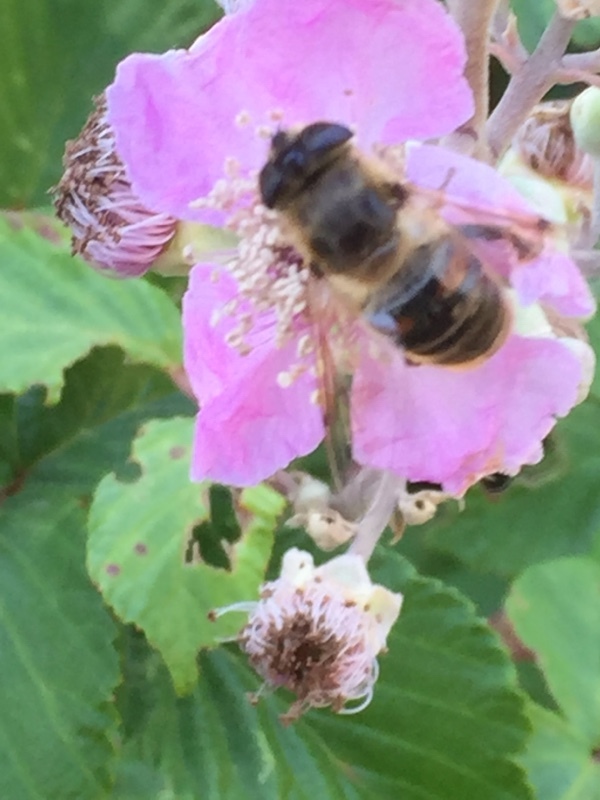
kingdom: Animalia
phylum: Arthropoda
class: Insecta
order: Diptera
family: Syrphidae
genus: Eristalis
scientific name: Eristalis tenax
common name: Drone fly
